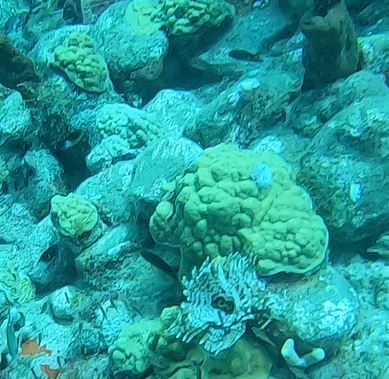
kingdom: Animalia
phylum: Cnidaria
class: Anthozoa
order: Scleractinia
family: Poritidae
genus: Porites
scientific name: Porites astreoides
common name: Mustard hill coral
